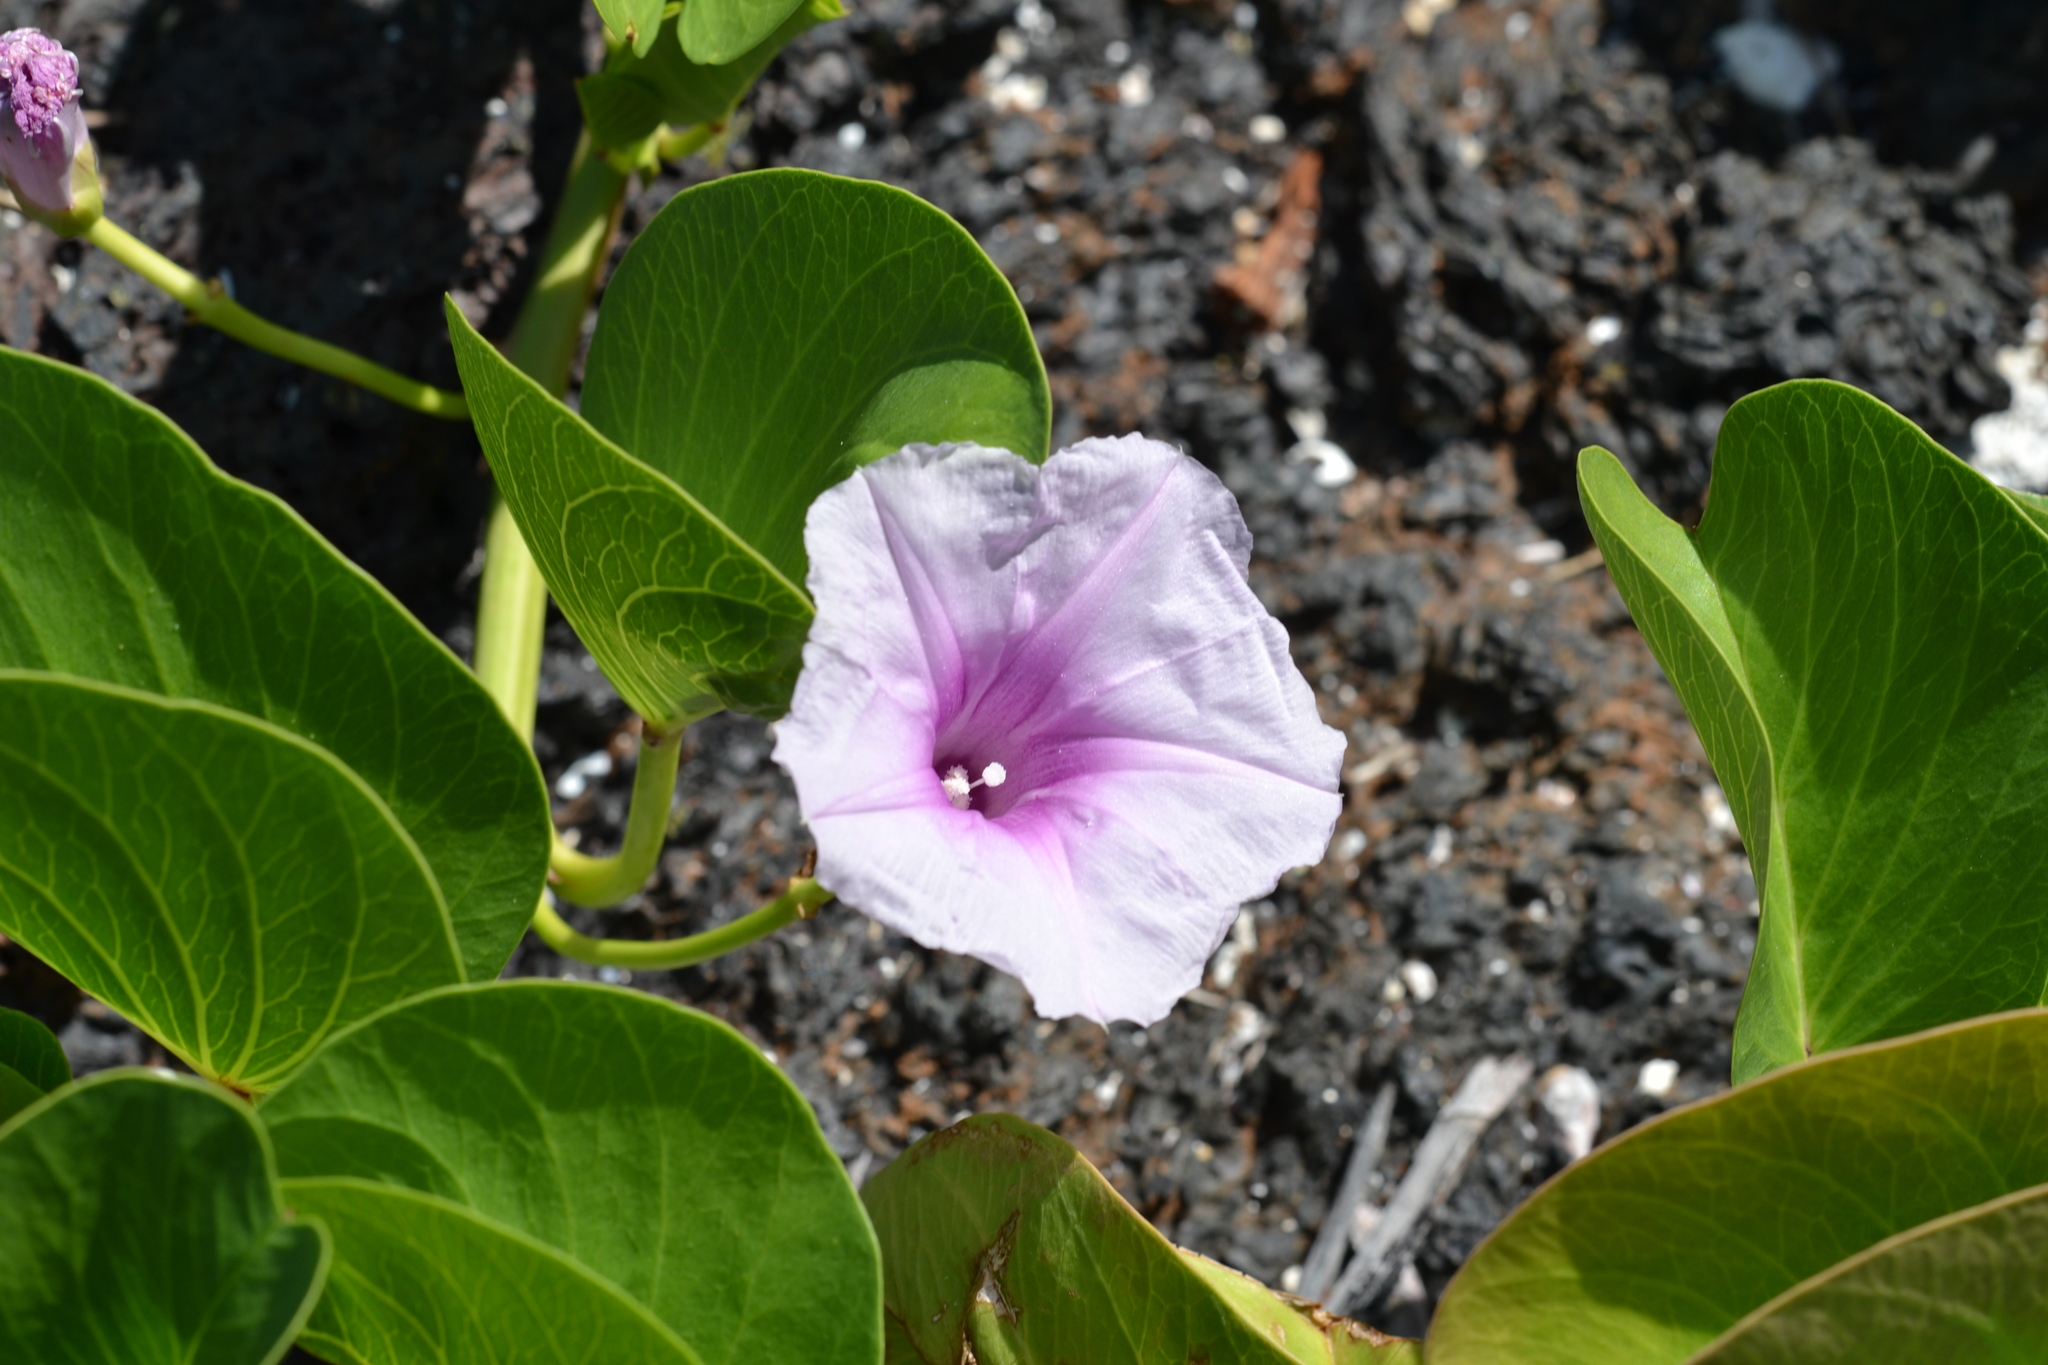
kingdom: Plantae
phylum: Tracheophyta
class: Magnoliopsida
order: Solanales
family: Convolvulaceae
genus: Ipomoea
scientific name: Ipomoea pes-caprae
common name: Beach morning glory
